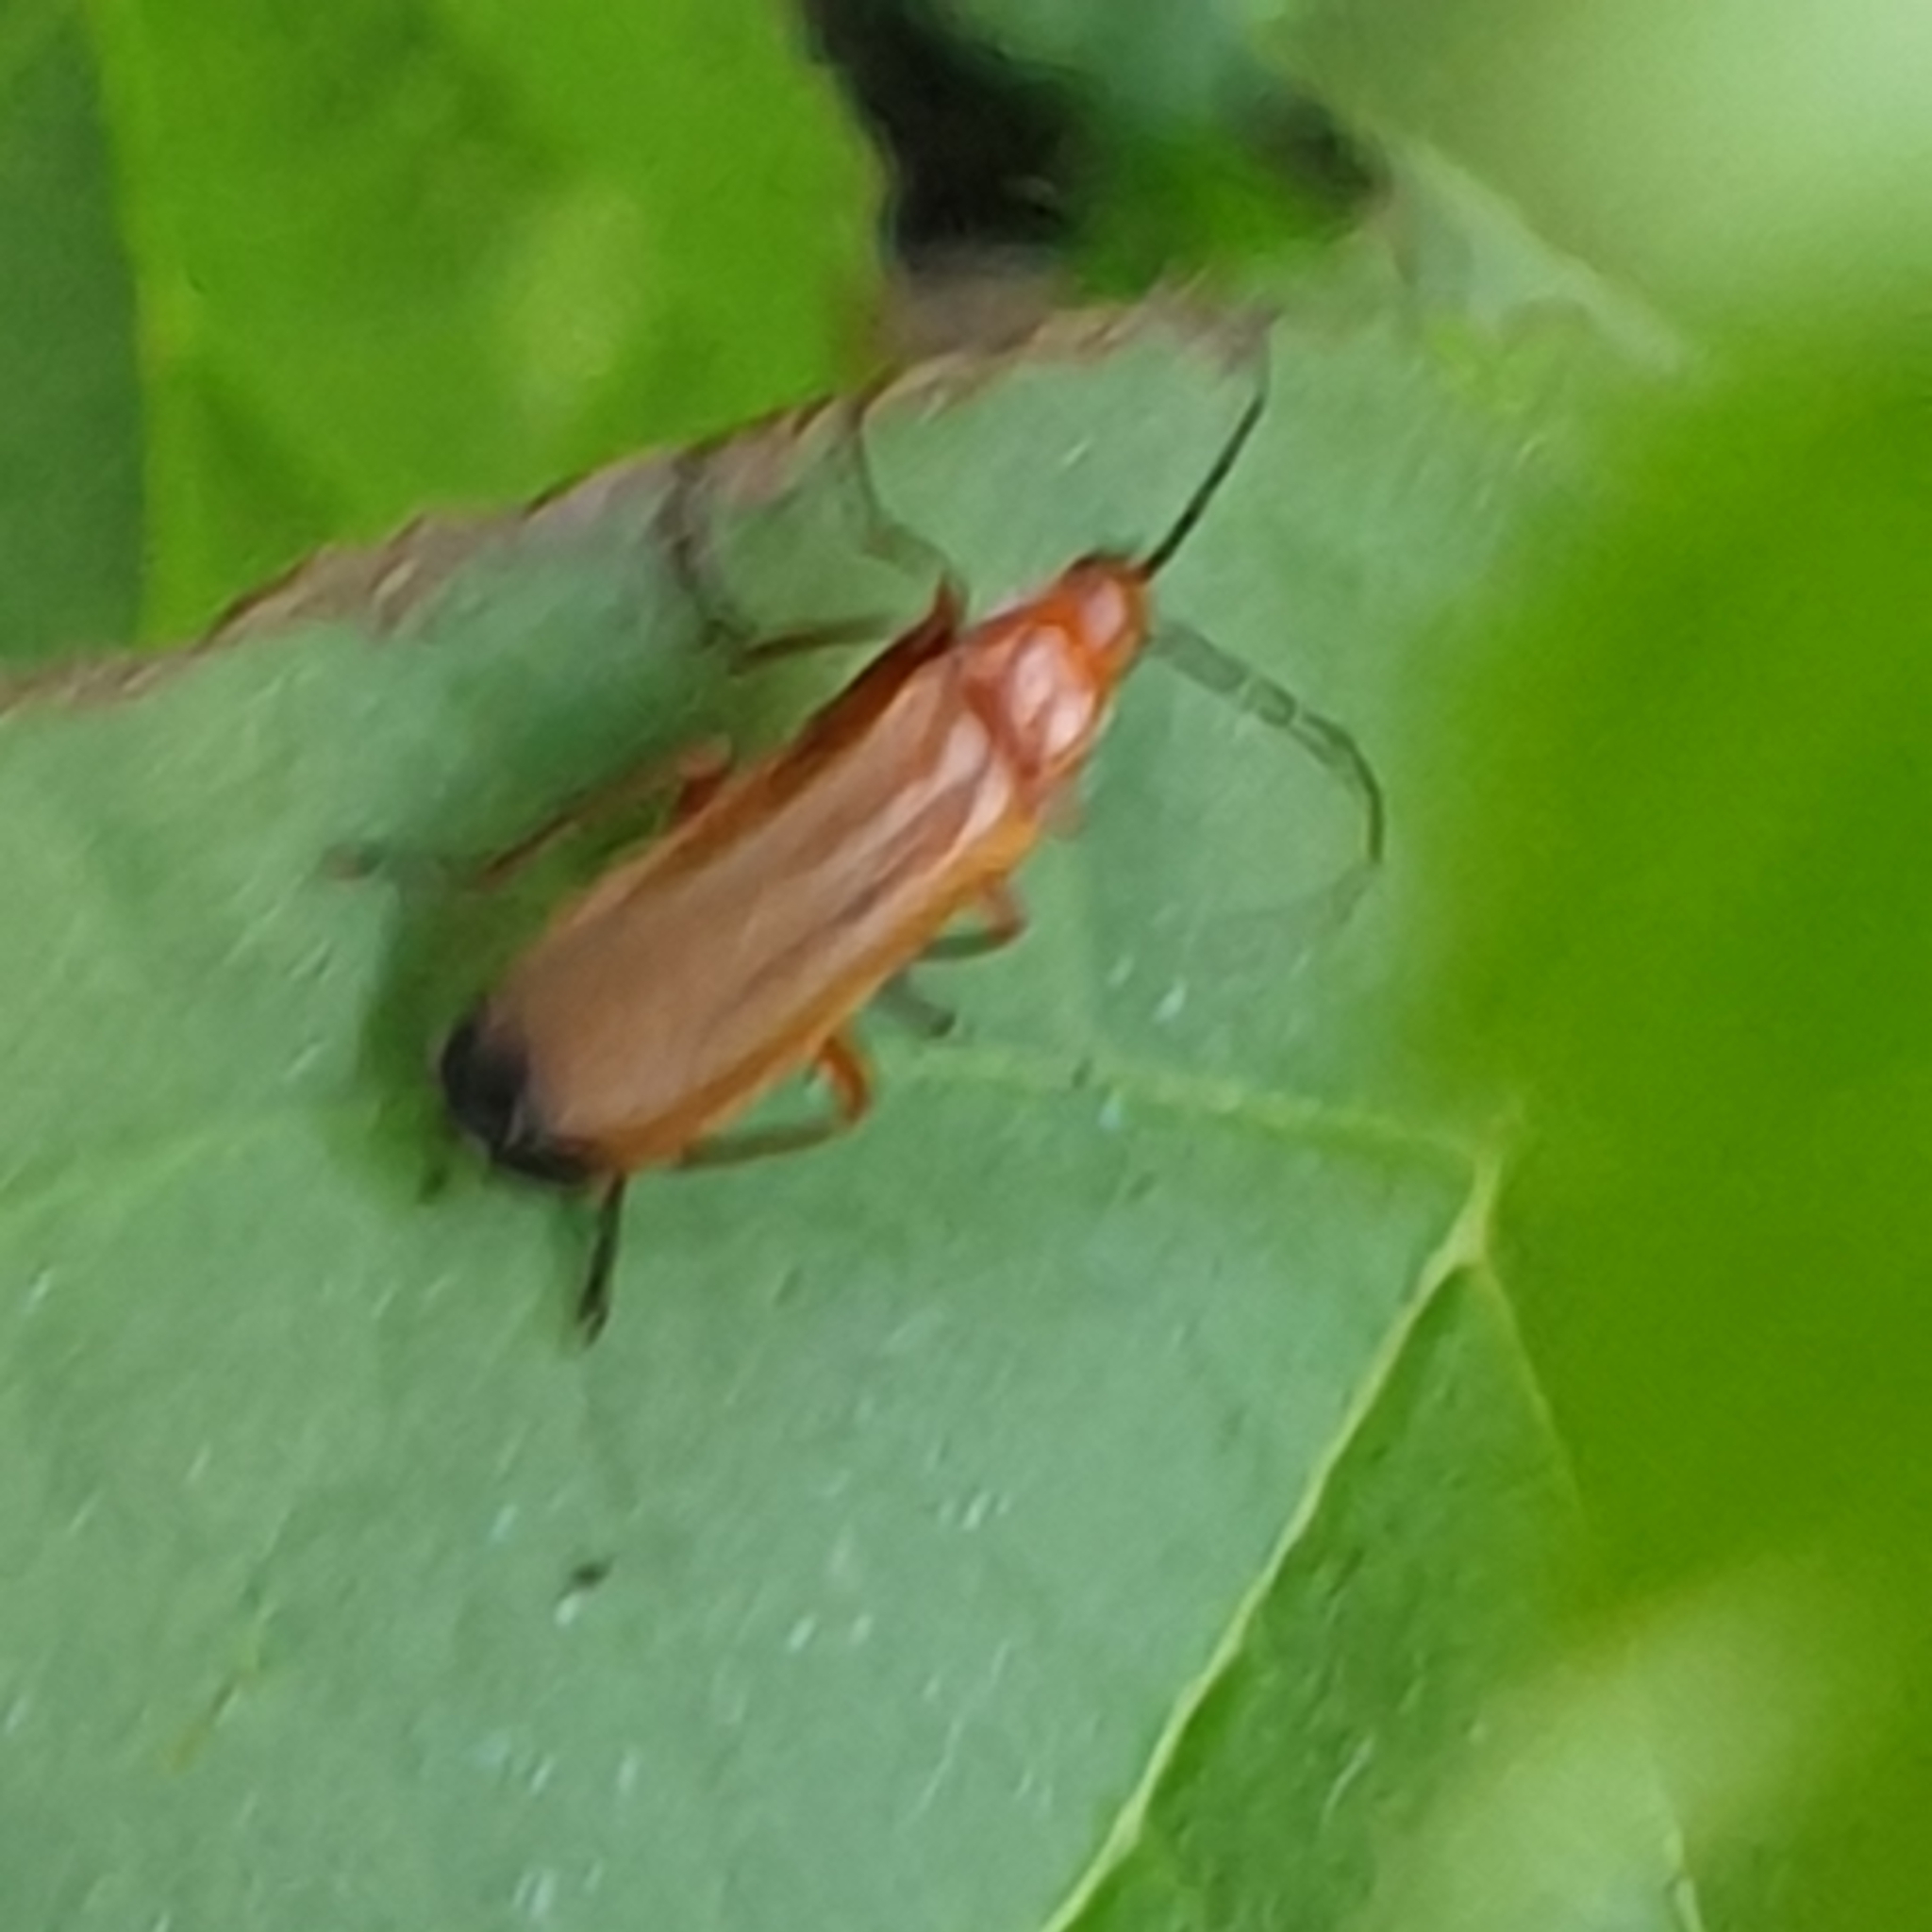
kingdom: Animalia
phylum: Arthropoda
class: Insecta
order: Coleoptera
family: Cantharidae
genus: Rhagonycha
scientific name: Rhagonycha fulva
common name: Common red soldier beetle
